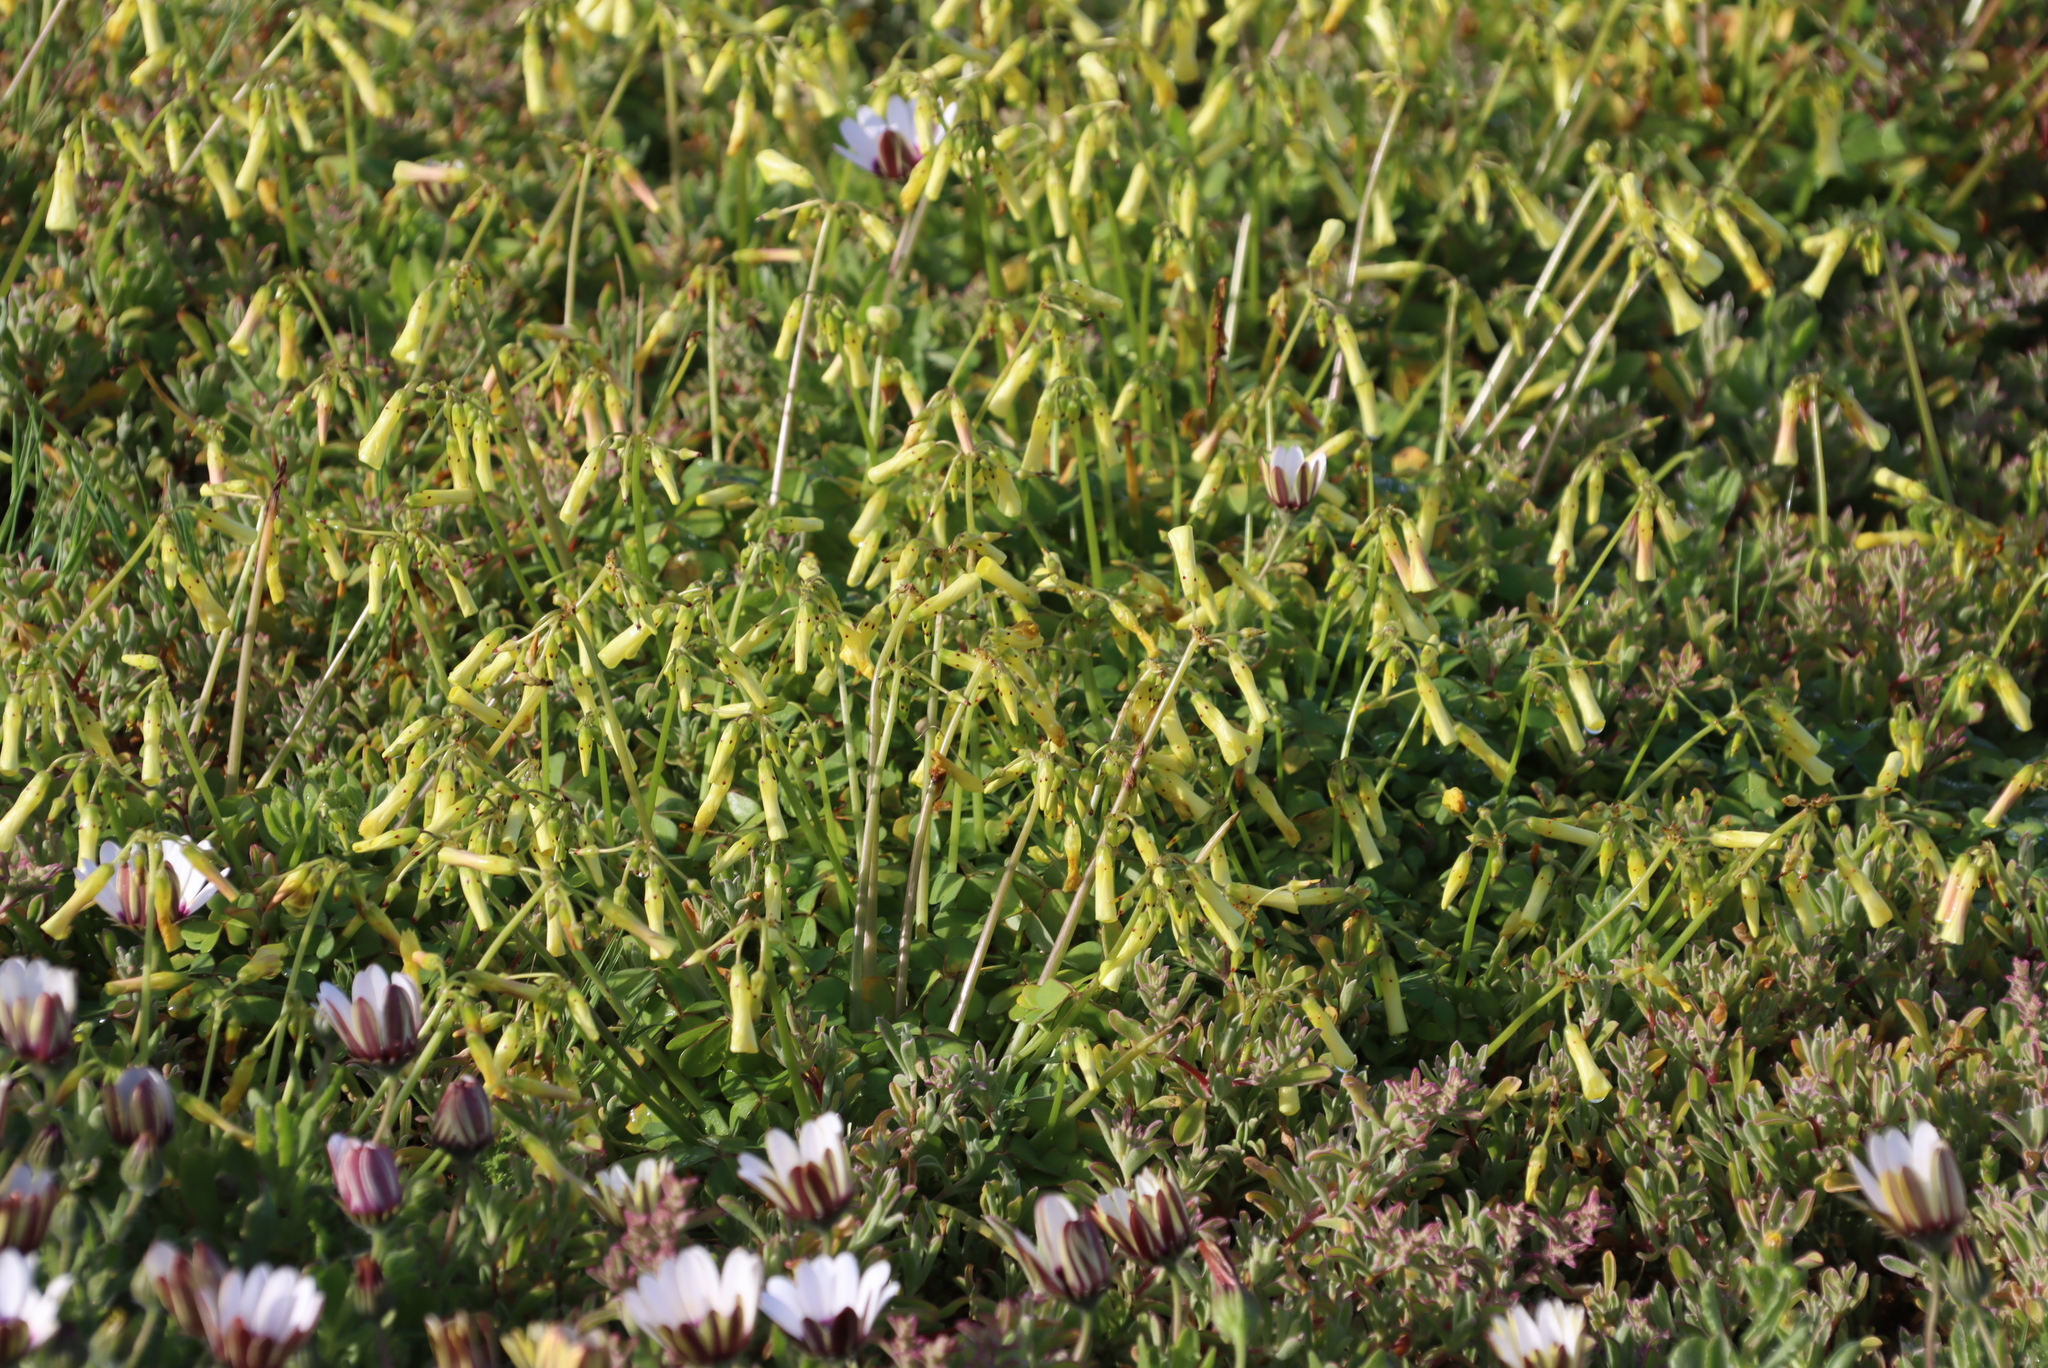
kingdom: Plantae
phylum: Tracheophyta
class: Magnoliopsida
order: Oxalidales
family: Oxalidaceae
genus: Oxalis
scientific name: Oxalis pes-caprae
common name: Bermuda-buttercup
